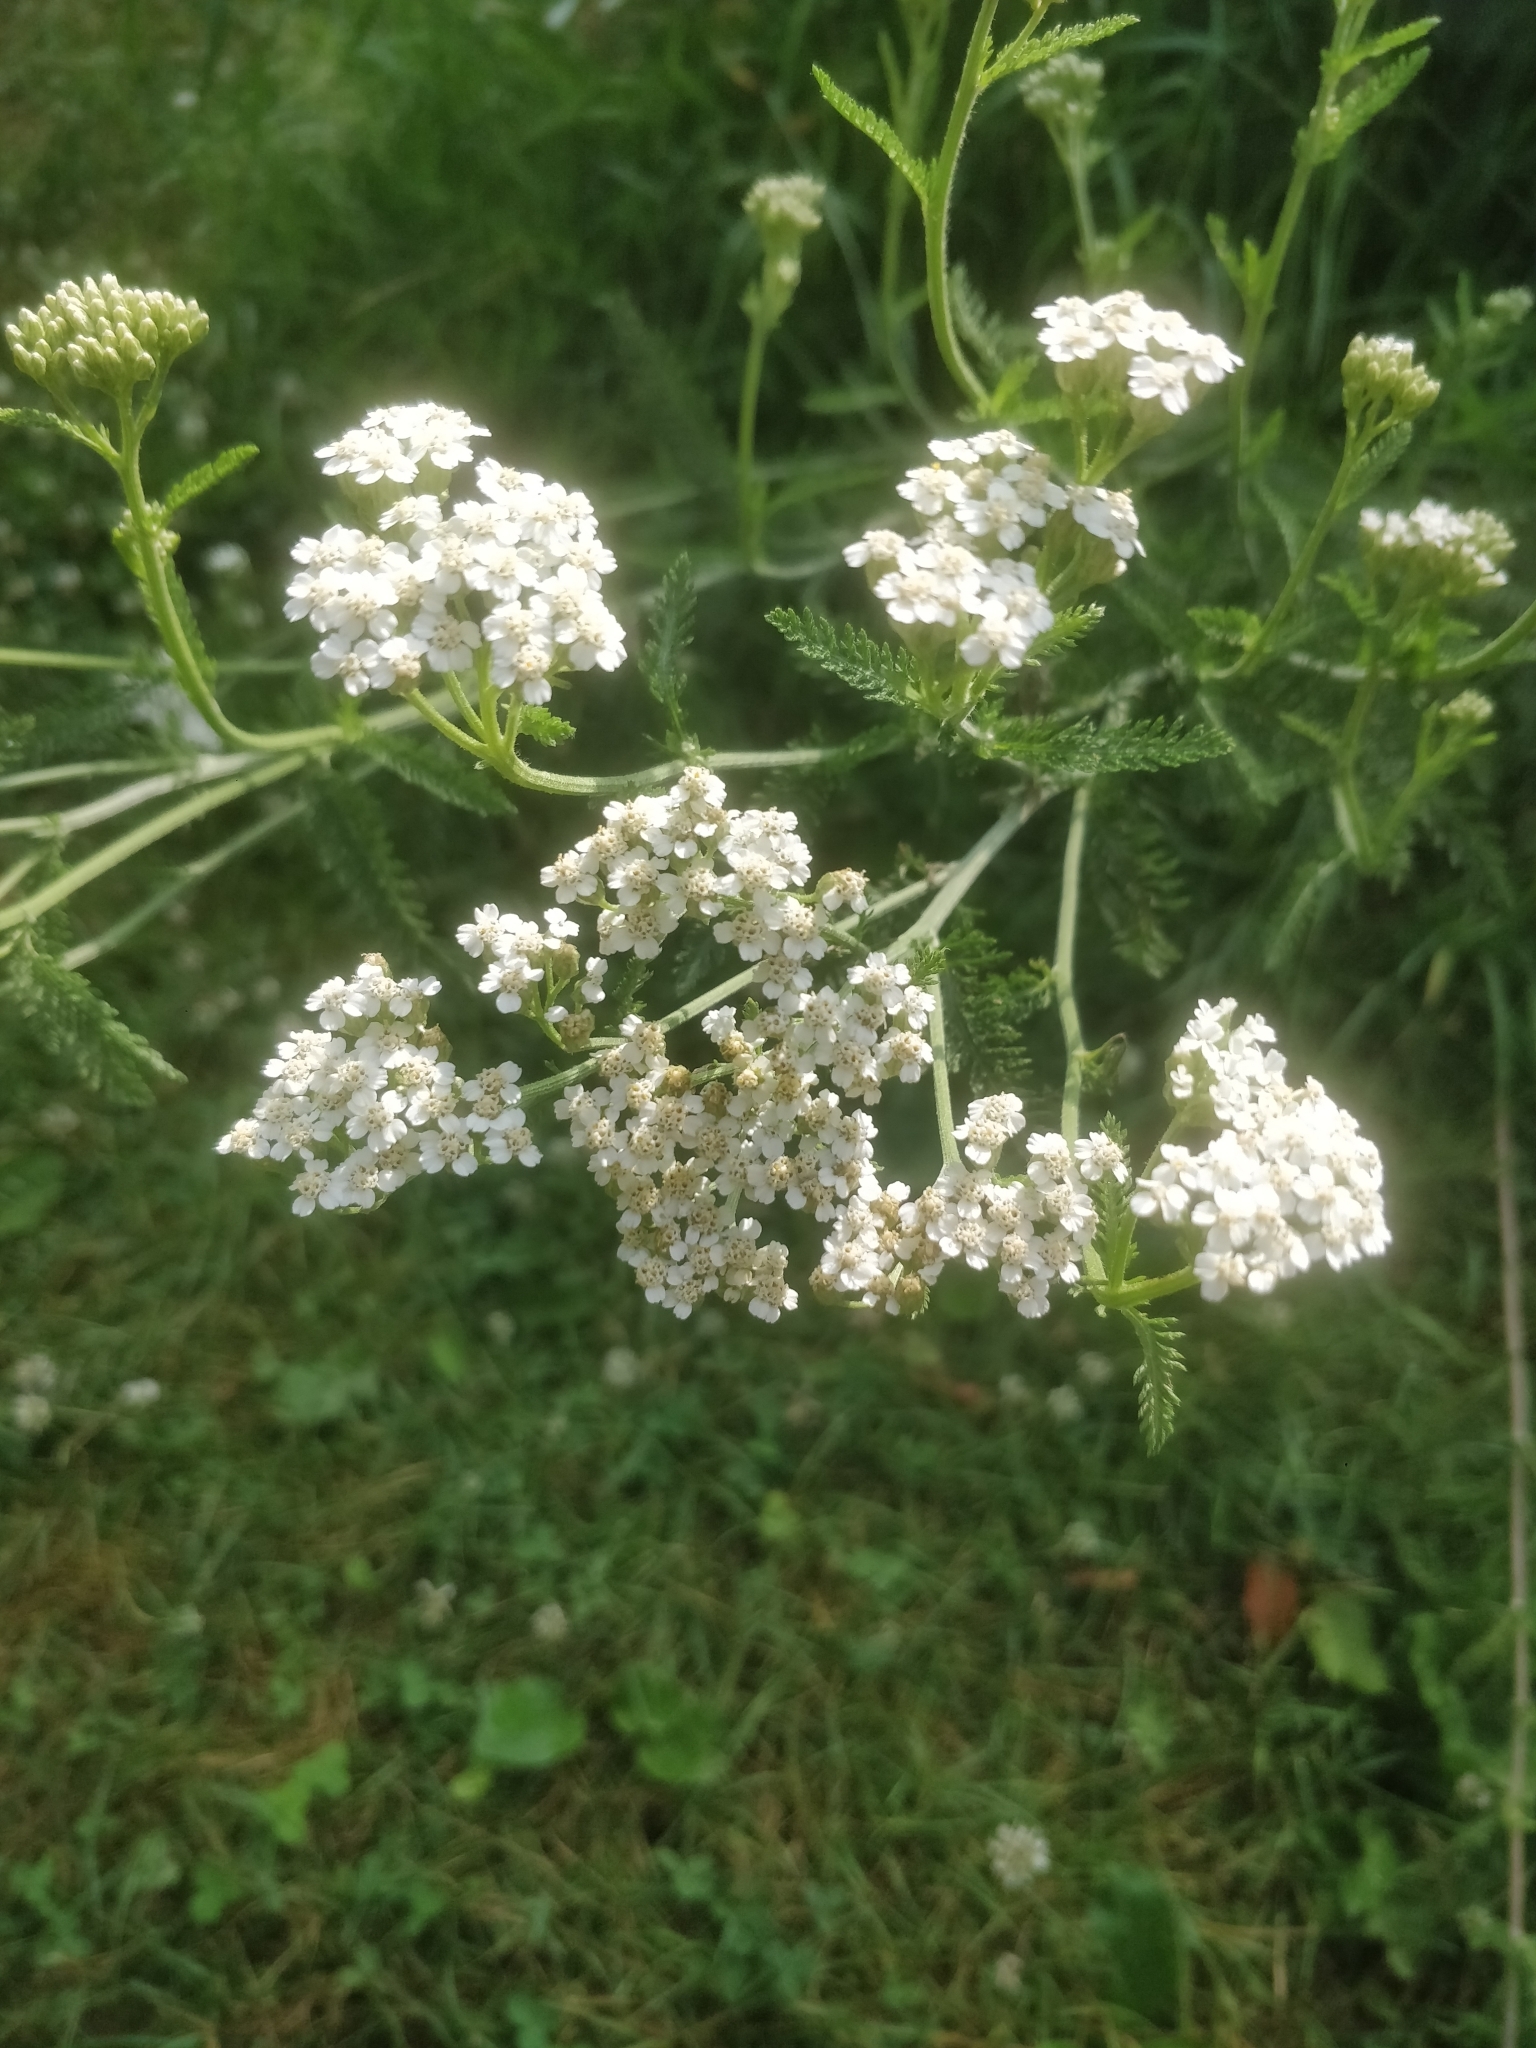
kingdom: Plantae
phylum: Tracheophyta
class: Magnoliopsida
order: Asterales
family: Asteraceae
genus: Achillea
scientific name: Achillea millefolium
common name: Yarrow
